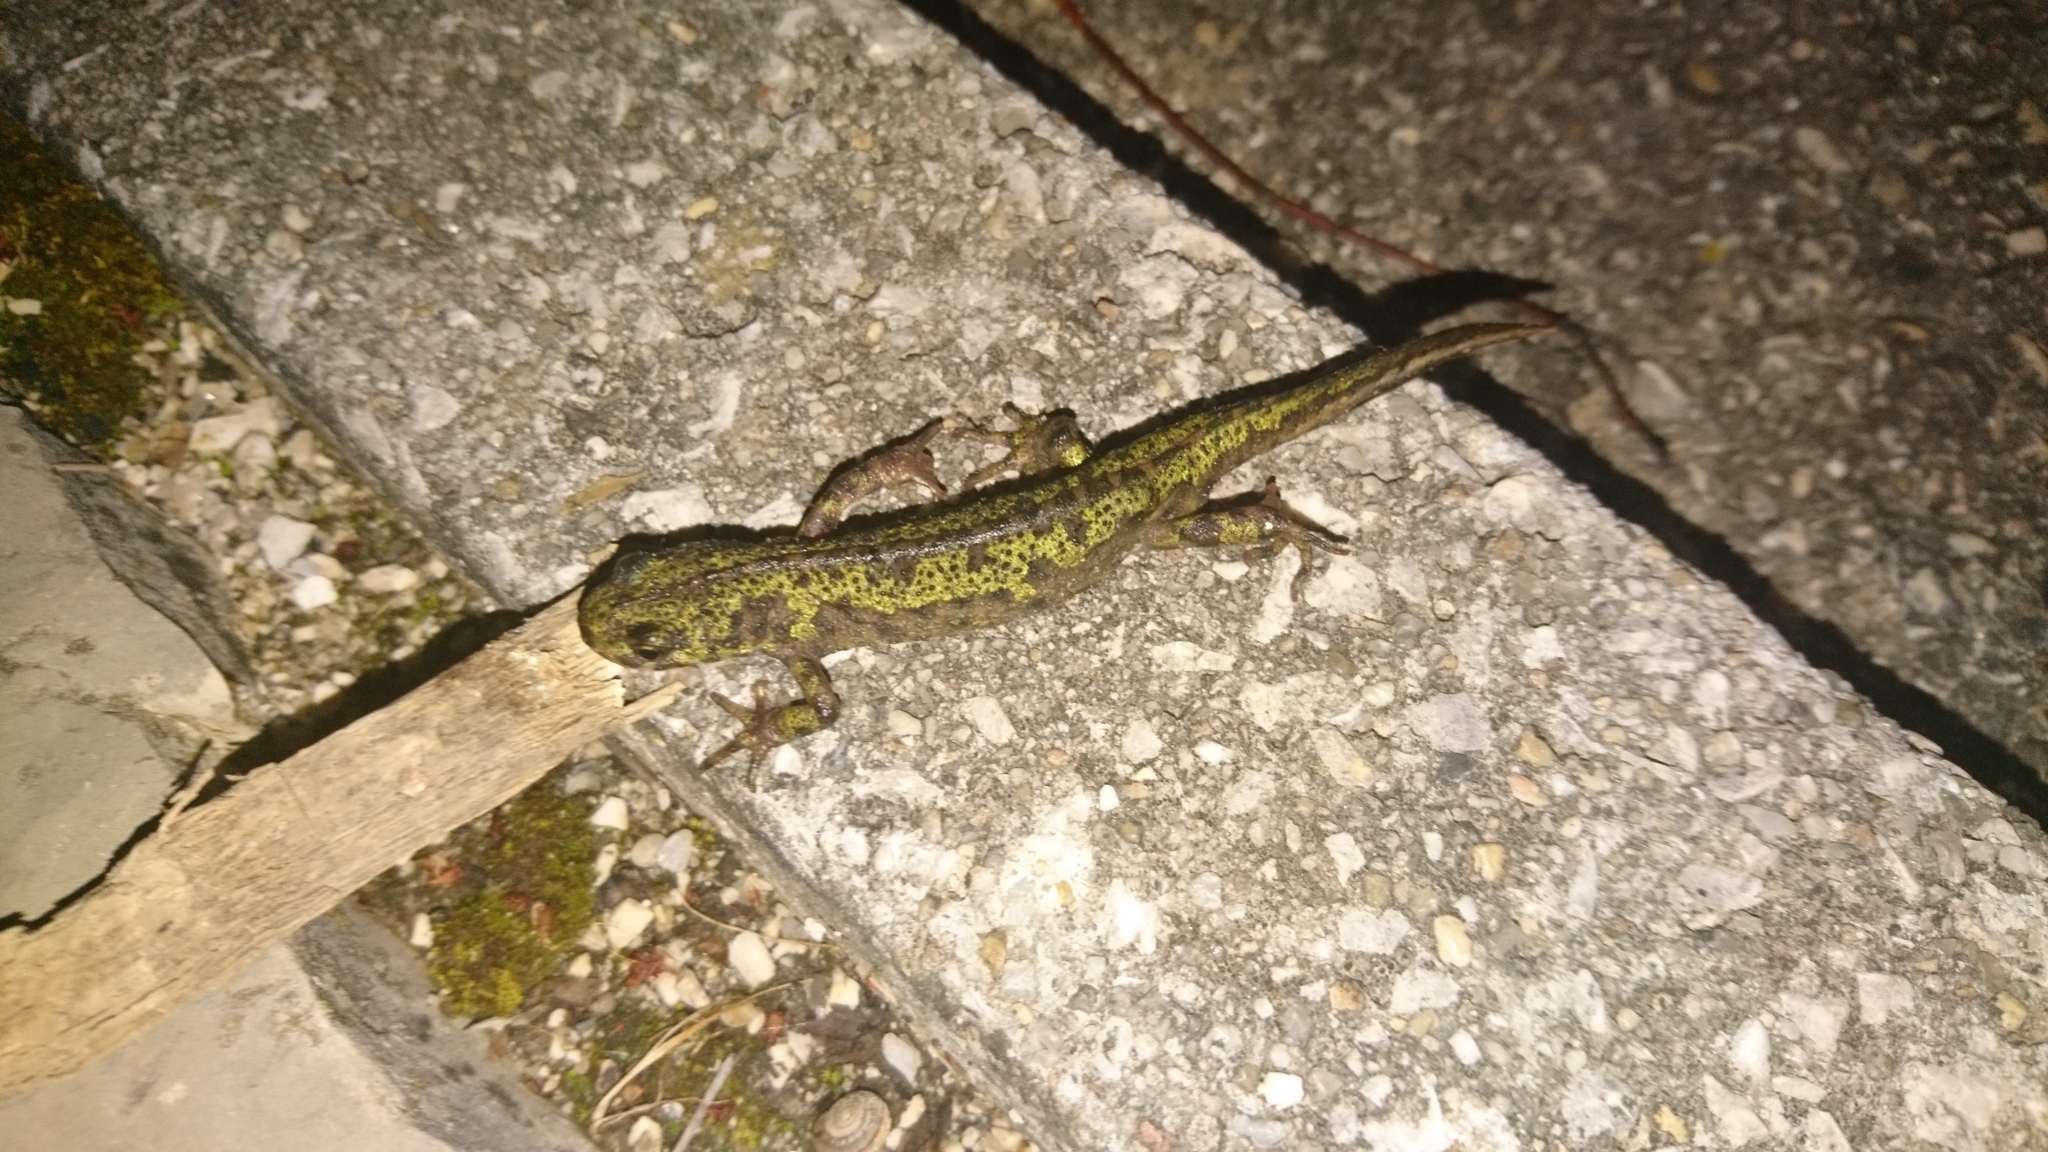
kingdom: Animalia
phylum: Chordata
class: Amphibia
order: Caudata
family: Salamandridae
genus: Triturus
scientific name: Triturus marmoratus
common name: Marbled newt
